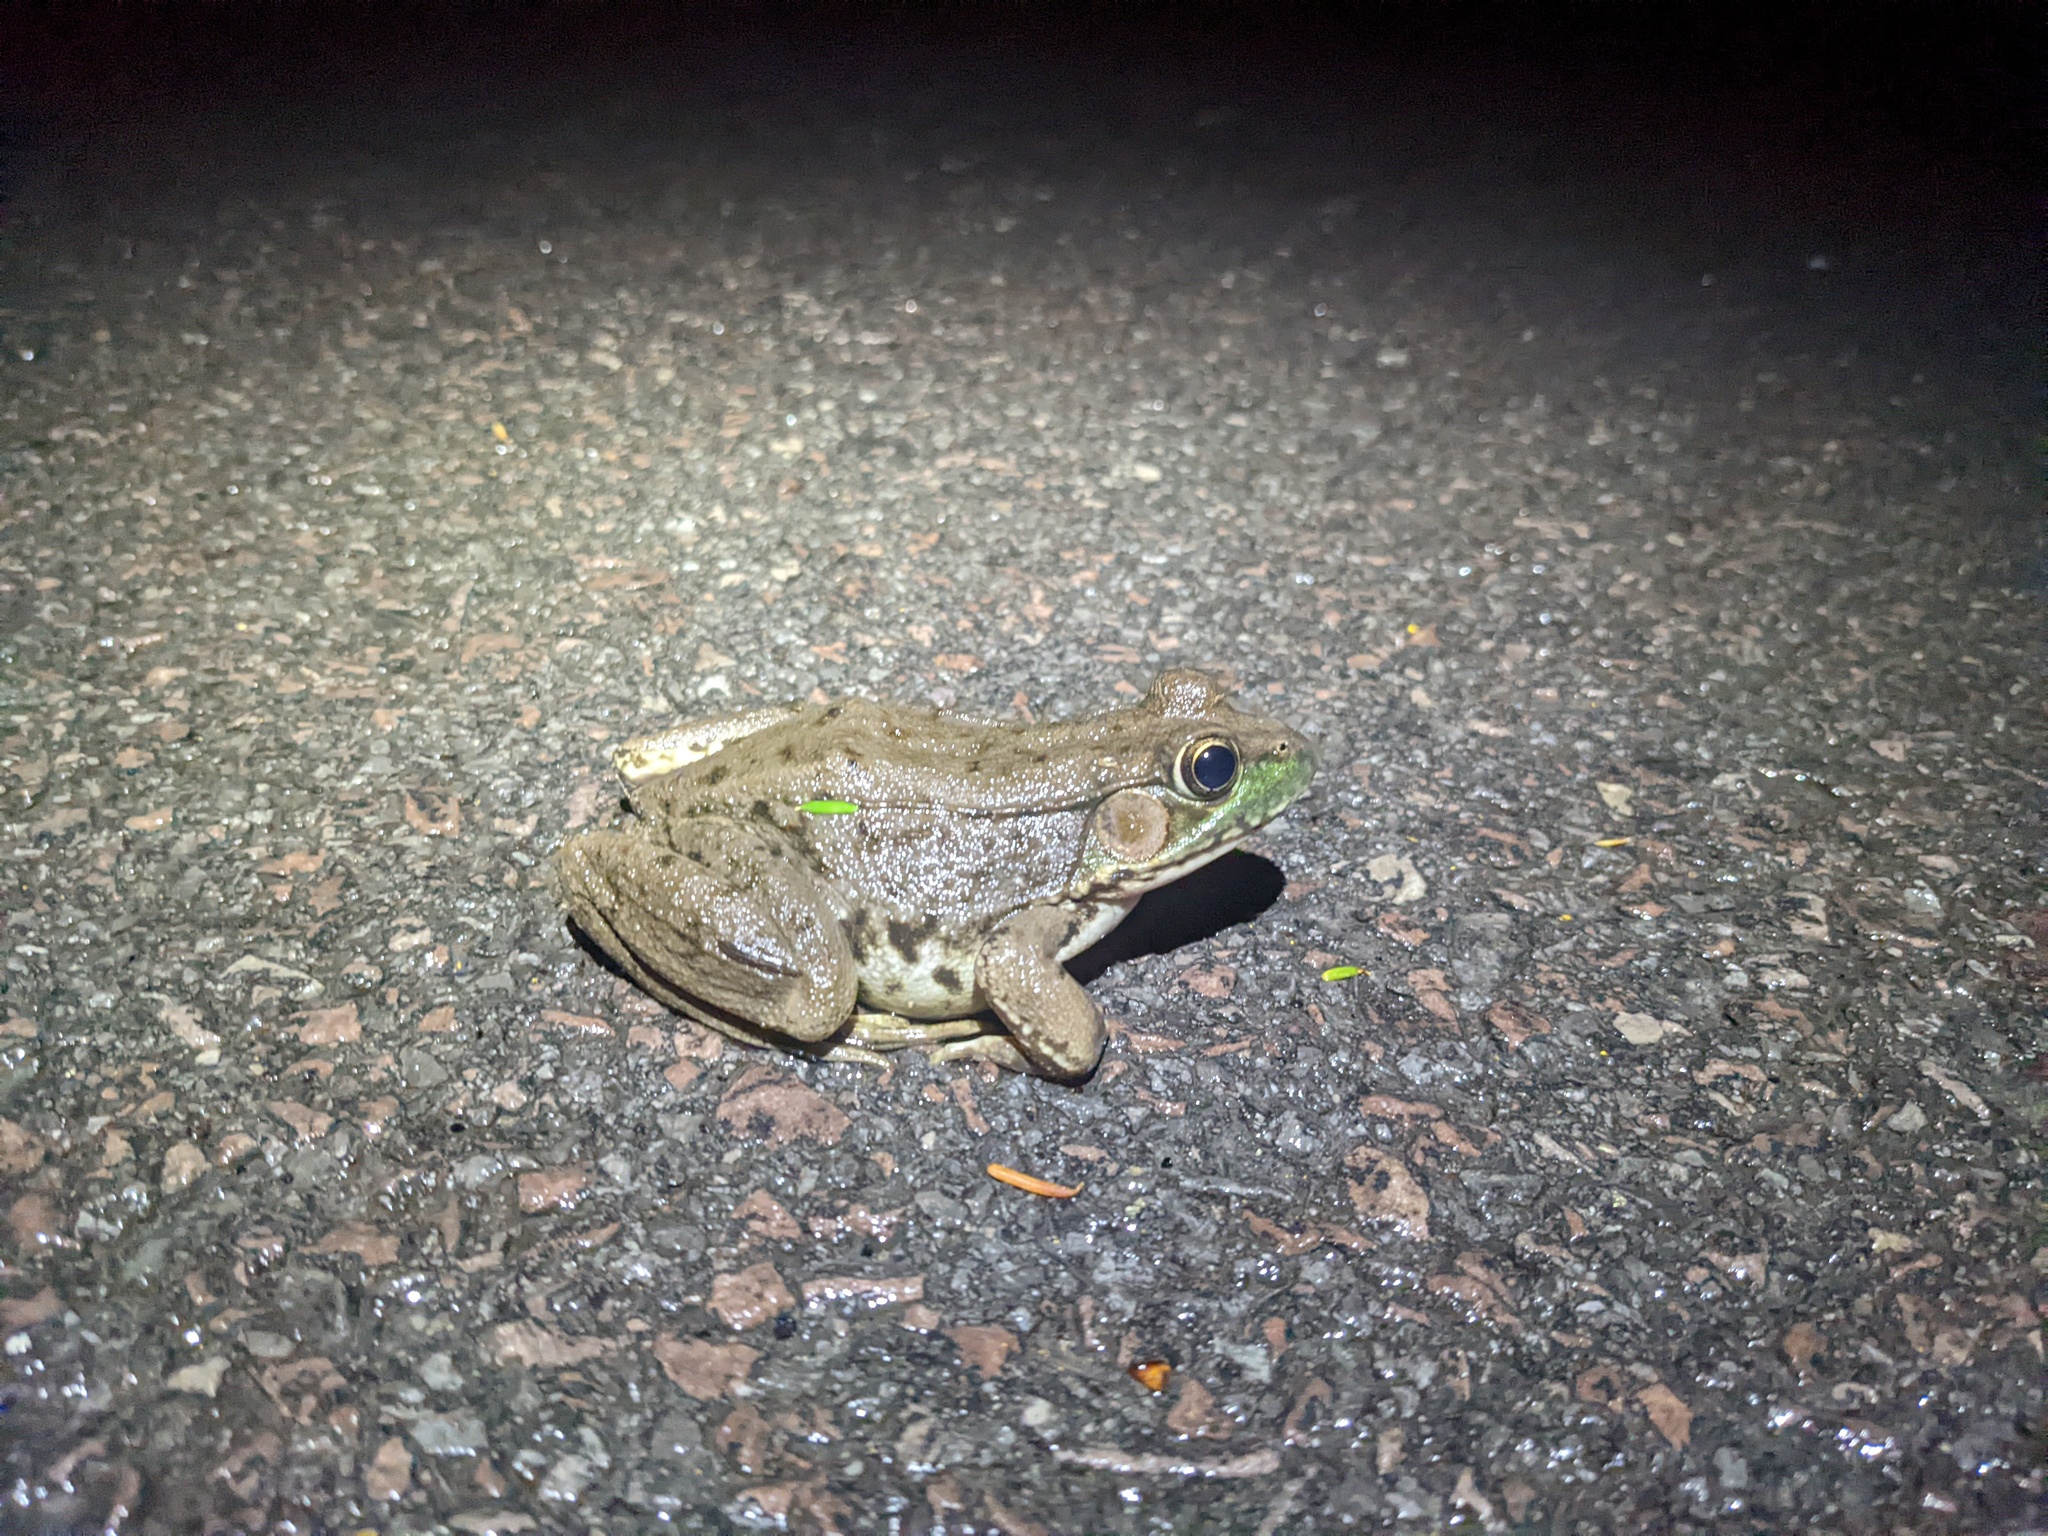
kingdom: Animalia
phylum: Chordata
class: Amphibia
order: Anura
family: Ranidae
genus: Lithobates
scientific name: Lithobates clamitans
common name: Green frog
